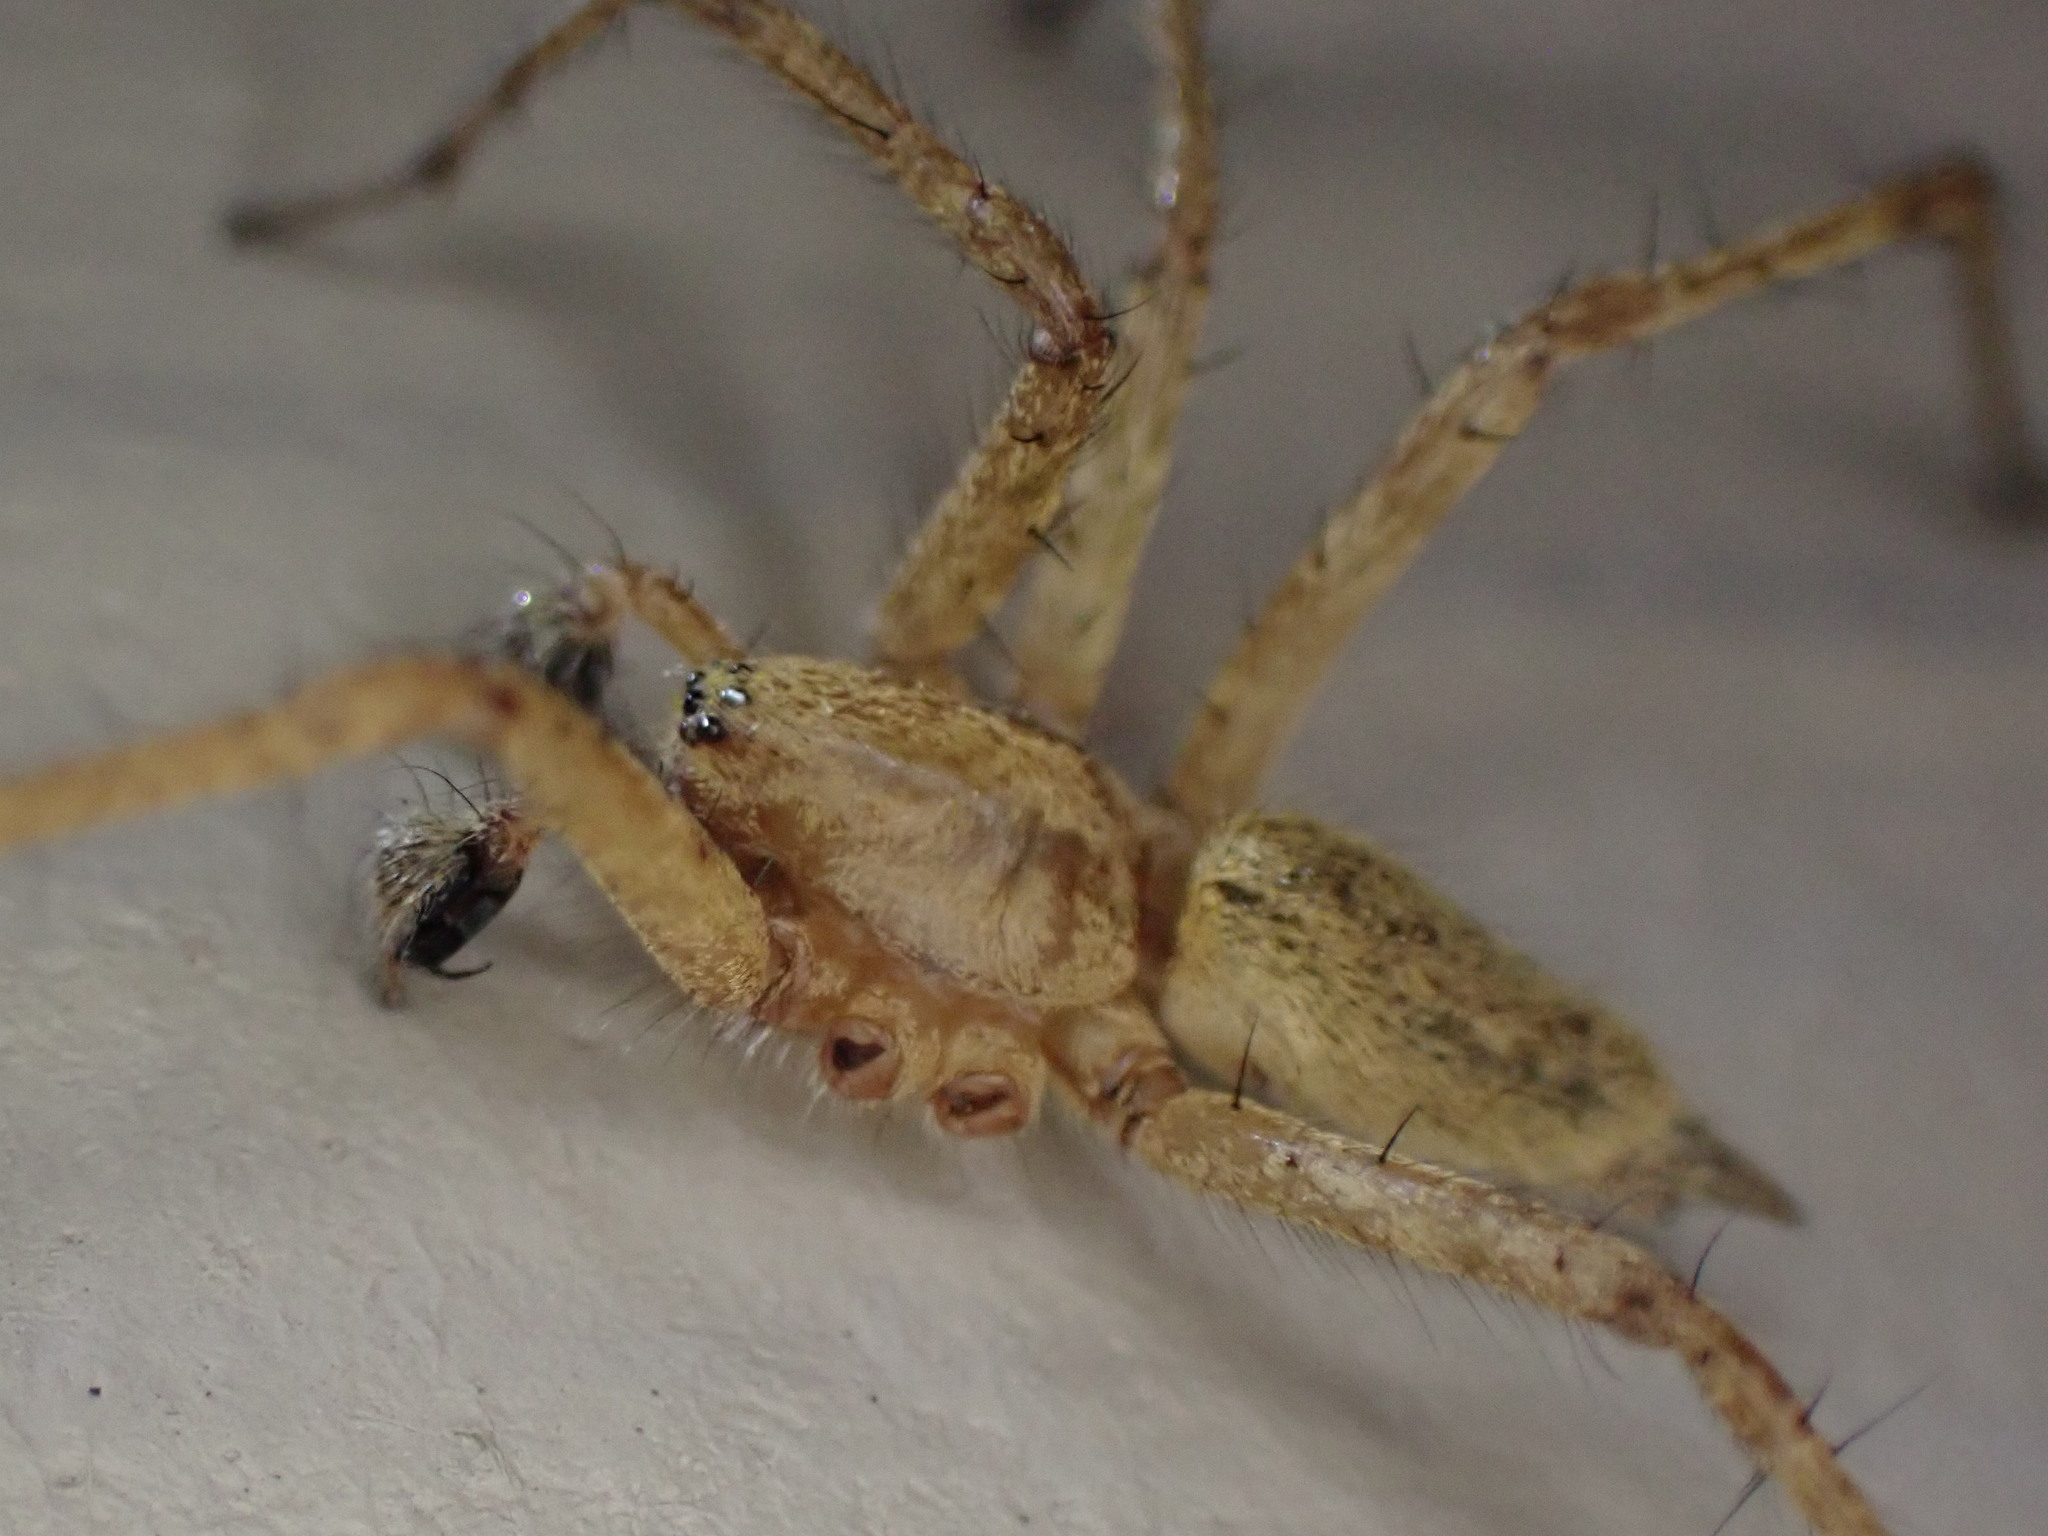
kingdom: Animalia
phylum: Arthropoda
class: Arachnida
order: Araneae
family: Agelenidae
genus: Agelenopsis
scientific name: Agelenopsis oregonensis
